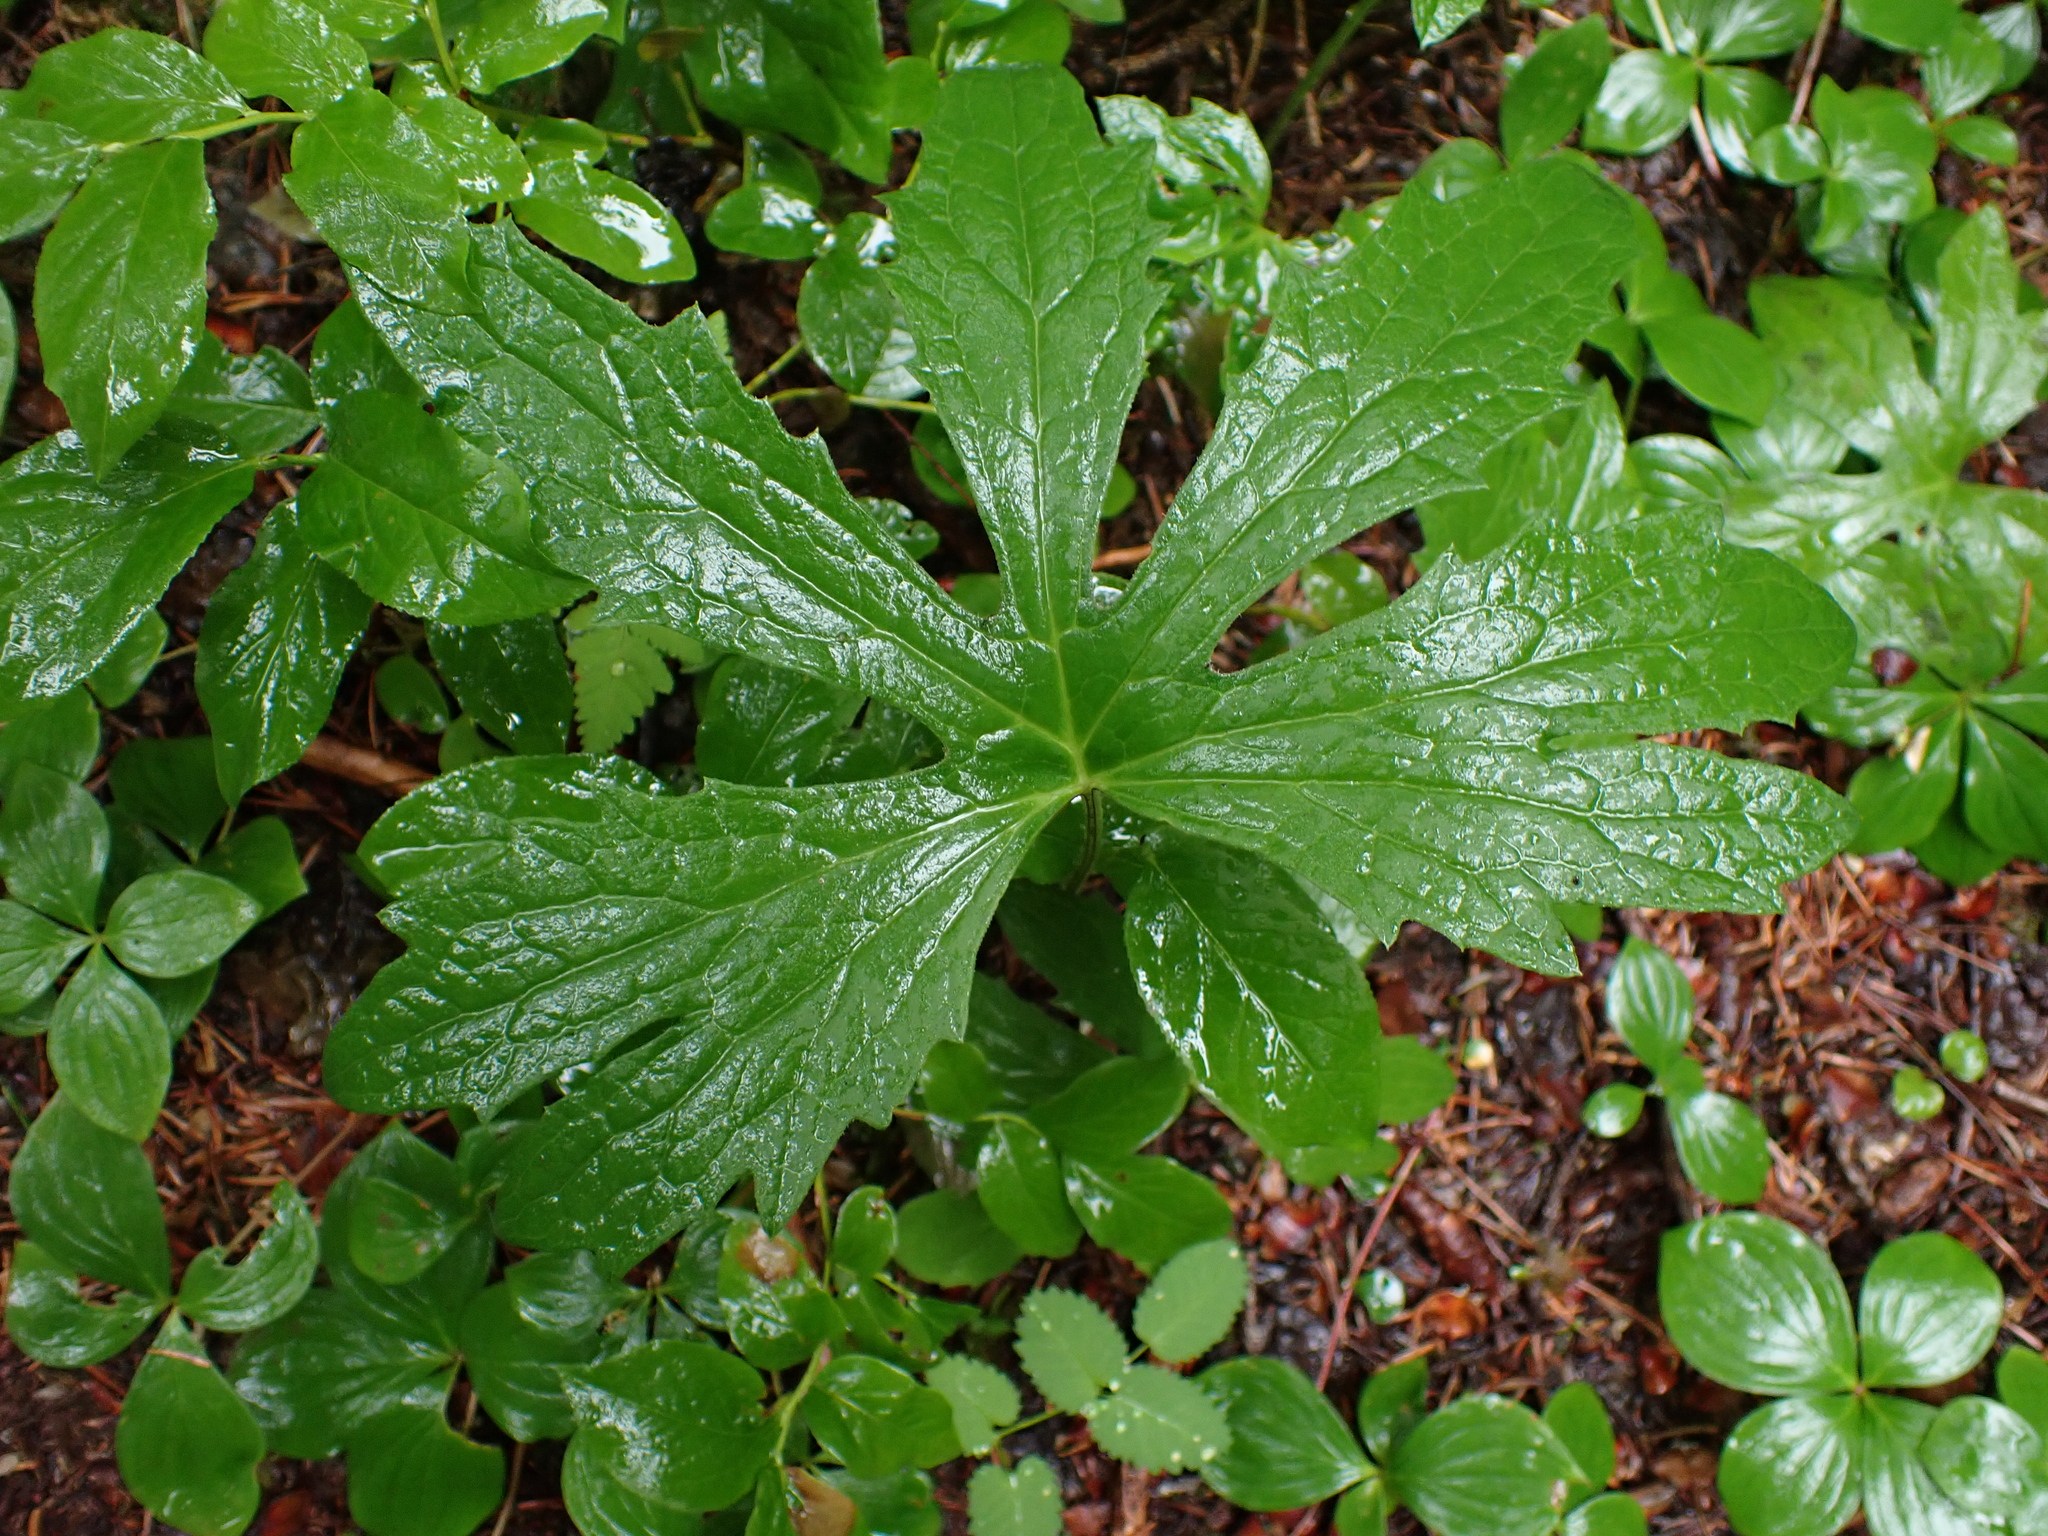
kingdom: Plantae
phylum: Tracheophyta
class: Magnoliopsida
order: Asterales
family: Asteraceae
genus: Petasites
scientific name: Petasites frigidus
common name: Arctic butterbur
